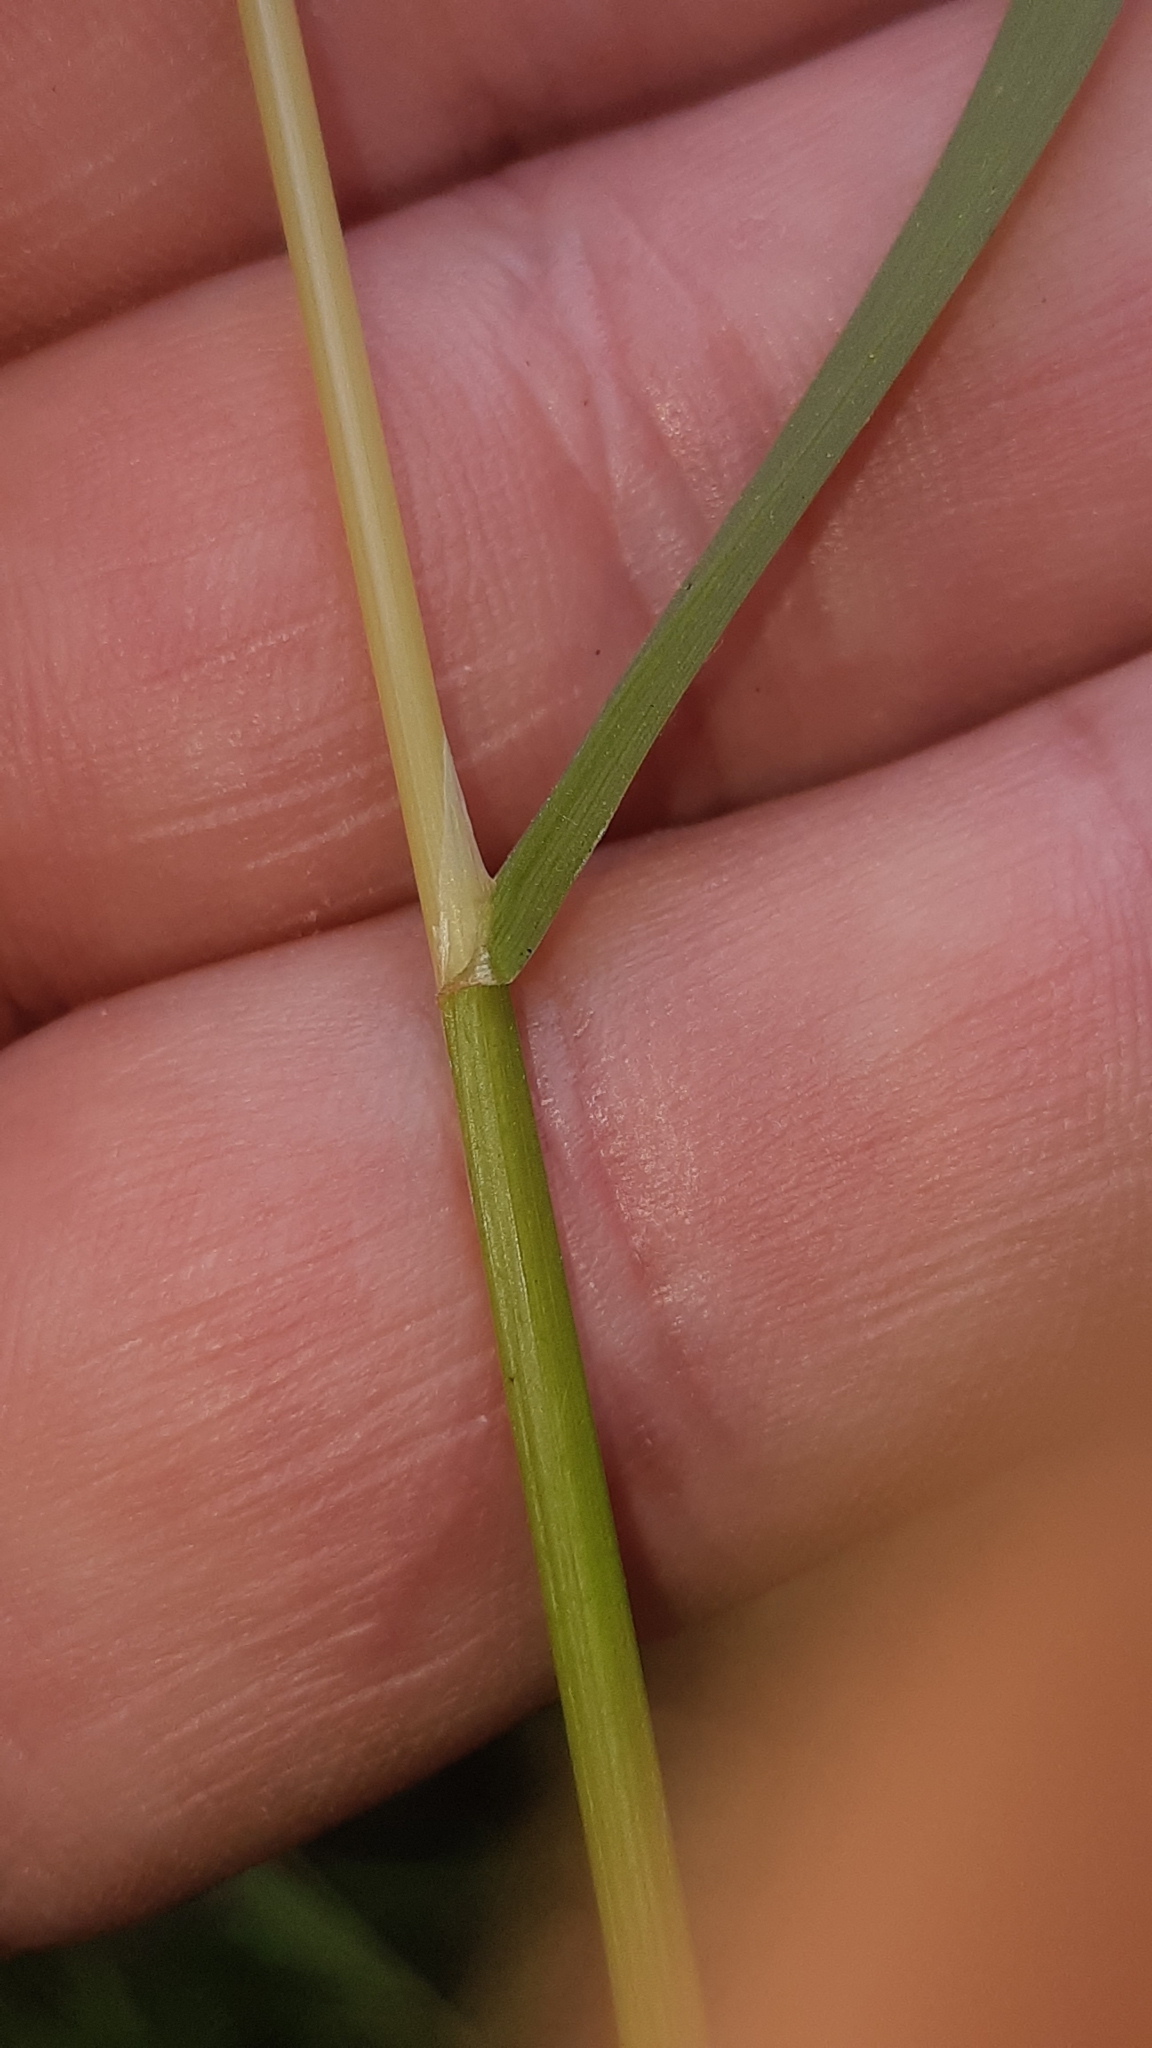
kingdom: Plantae
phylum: Tracheophyta
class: Liliopsida
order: Poales
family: Poaceae
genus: Poa
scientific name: Poa trivialis
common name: Rough bluegrass
